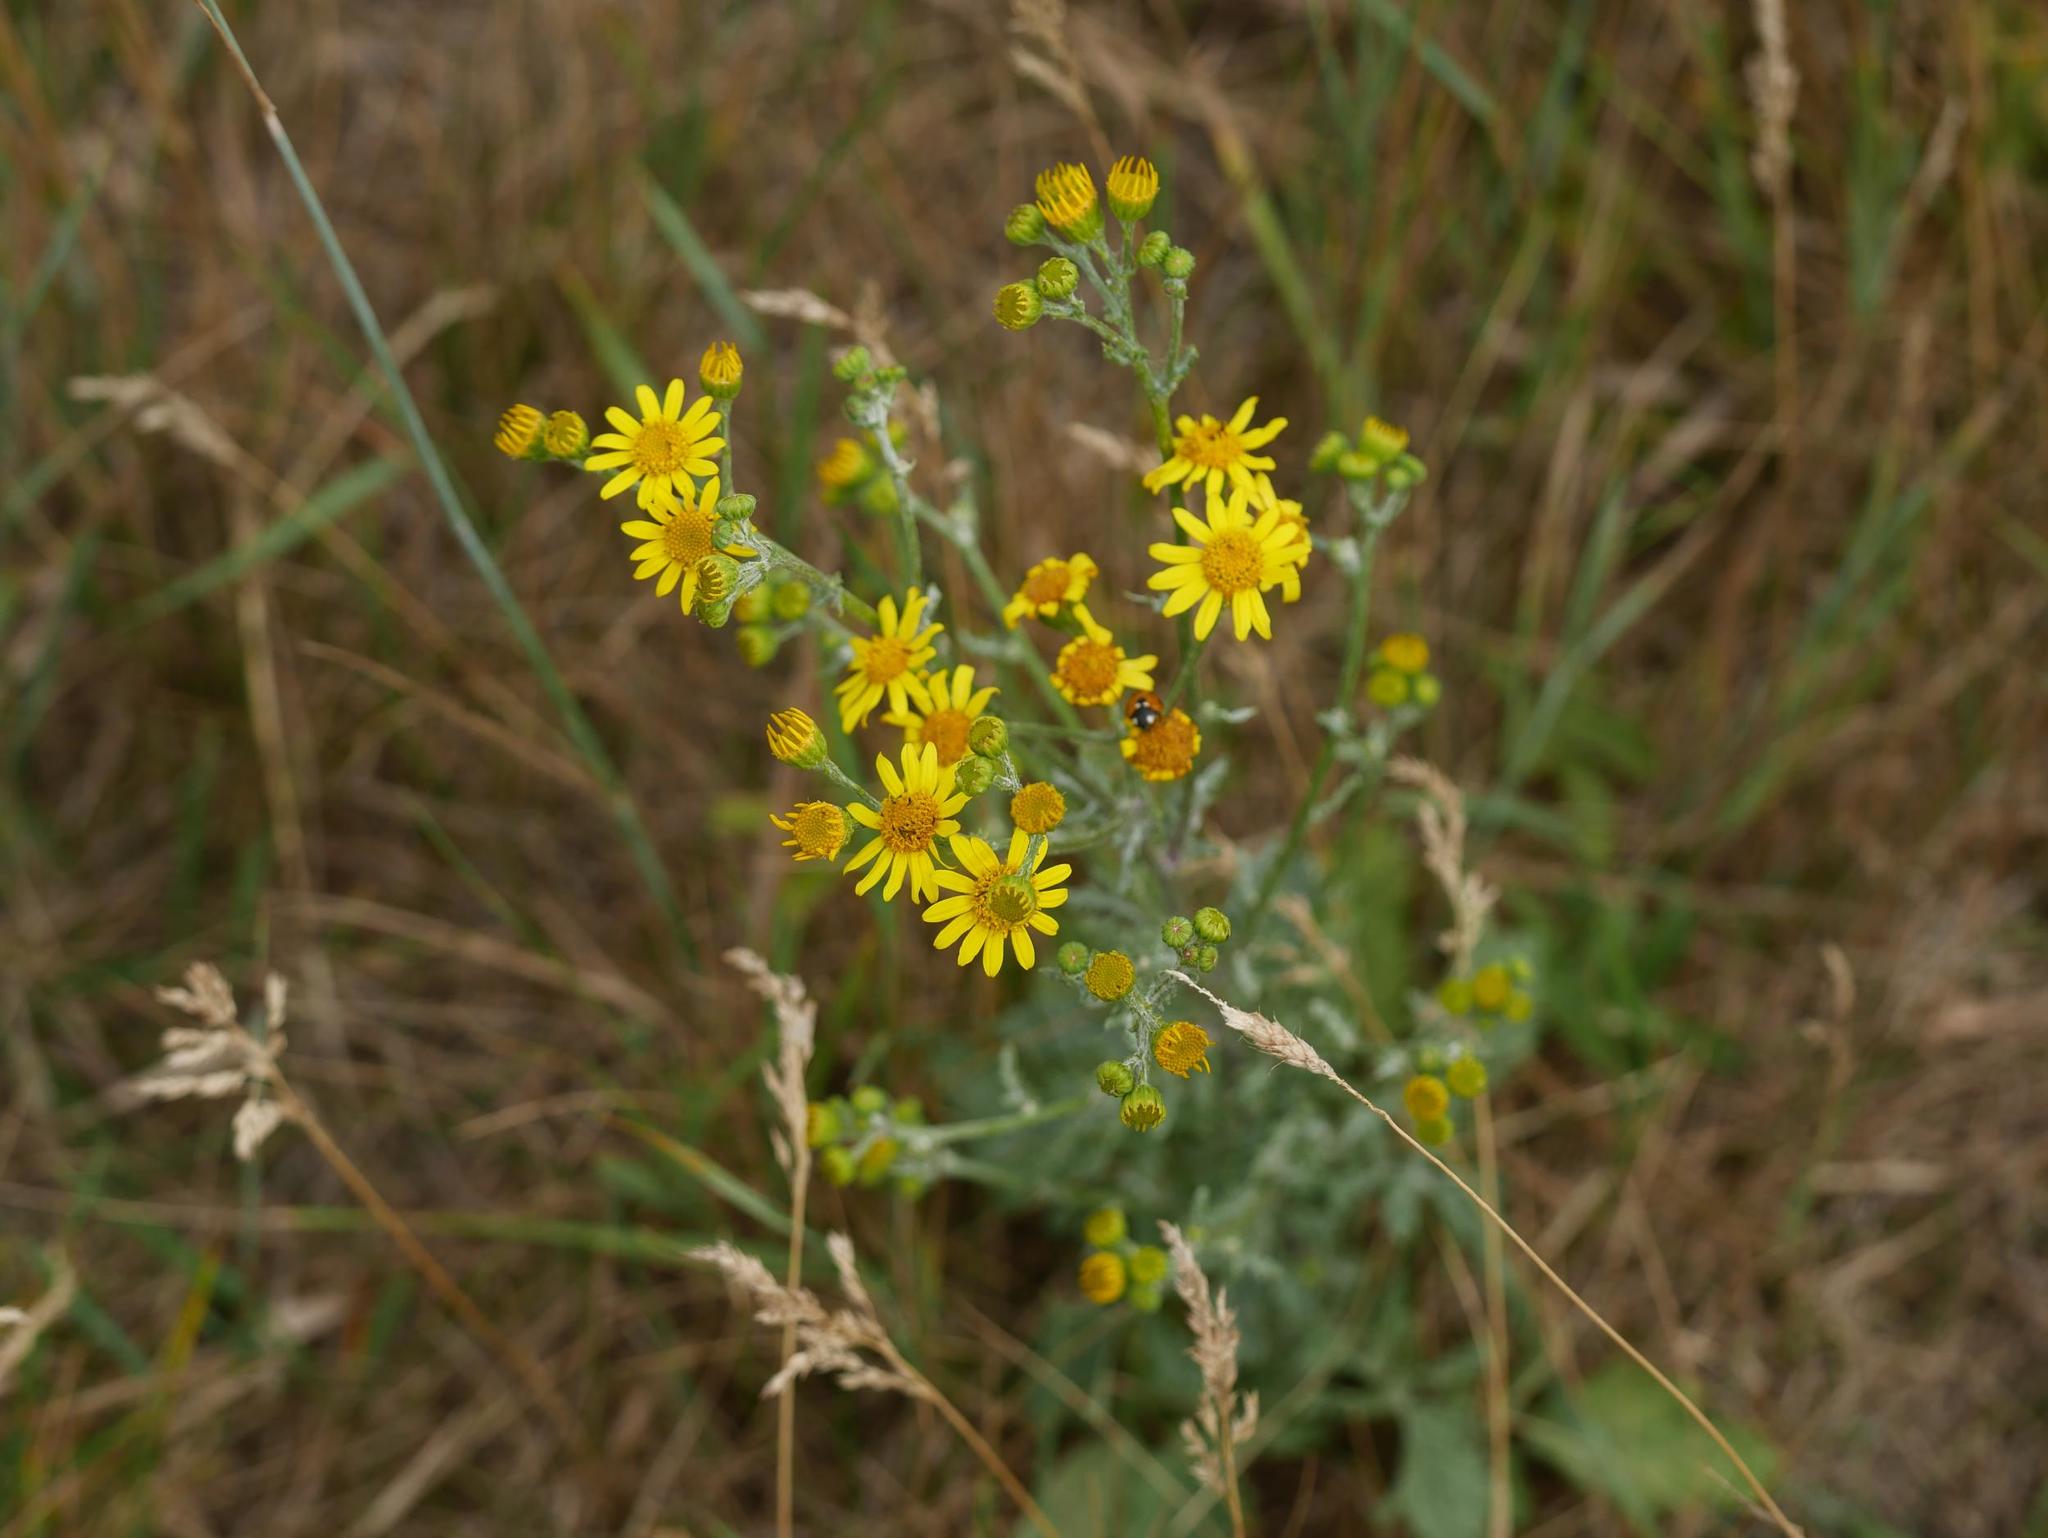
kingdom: Plantae
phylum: Tracheophyta
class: Magnoliopsida
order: Asterales
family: Asteraceae
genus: Jacobaea
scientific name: Jacobaea vulgaris
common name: Stinking willie
